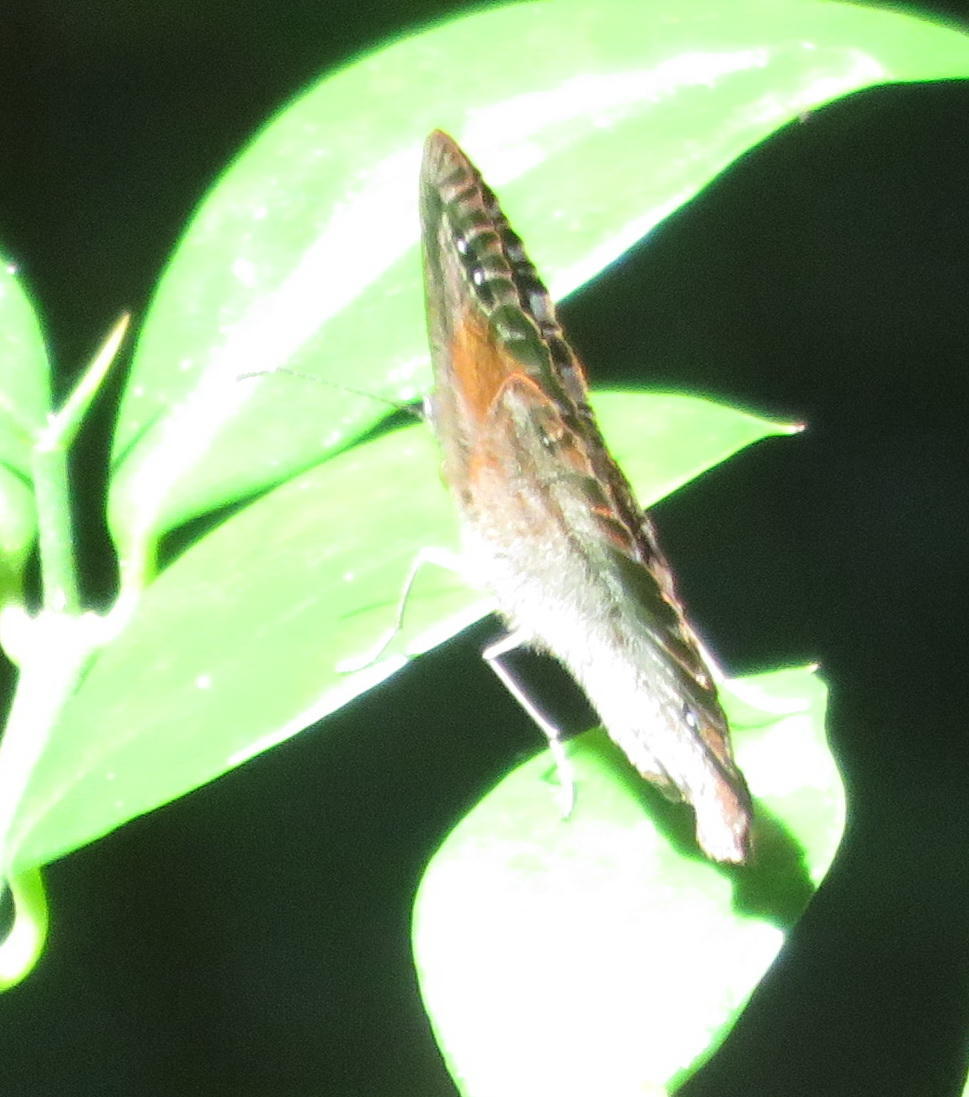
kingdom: Animalia
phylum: Arthropoda
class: Insecta
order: Lepidoptera
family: Nymphalidae
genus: Cassionympha
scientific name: Cassionympha cassius
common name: Rainforest brown
